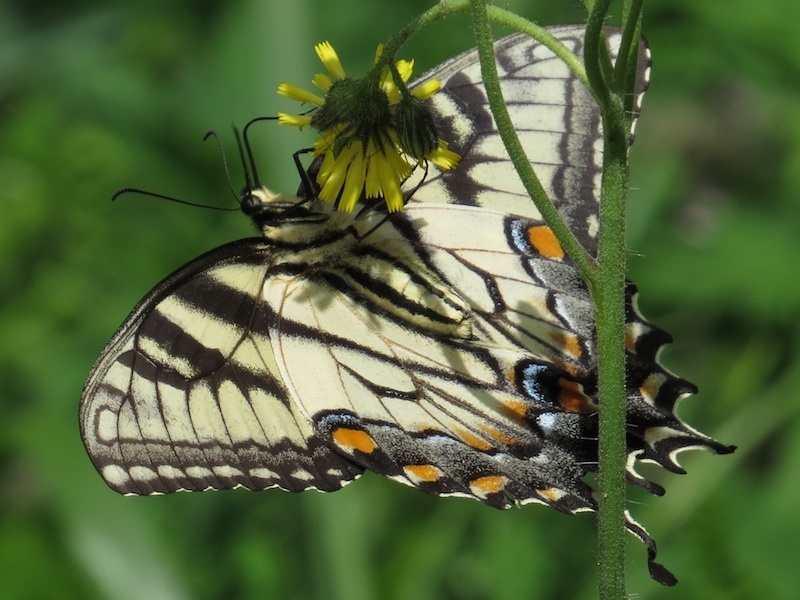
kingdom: Animalia
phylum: Arthropoda
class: Insecta
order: Lepidoptera
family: Papilionidae
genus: Papilio
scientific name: Papilio glaucus
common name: Tiger swallowtail
